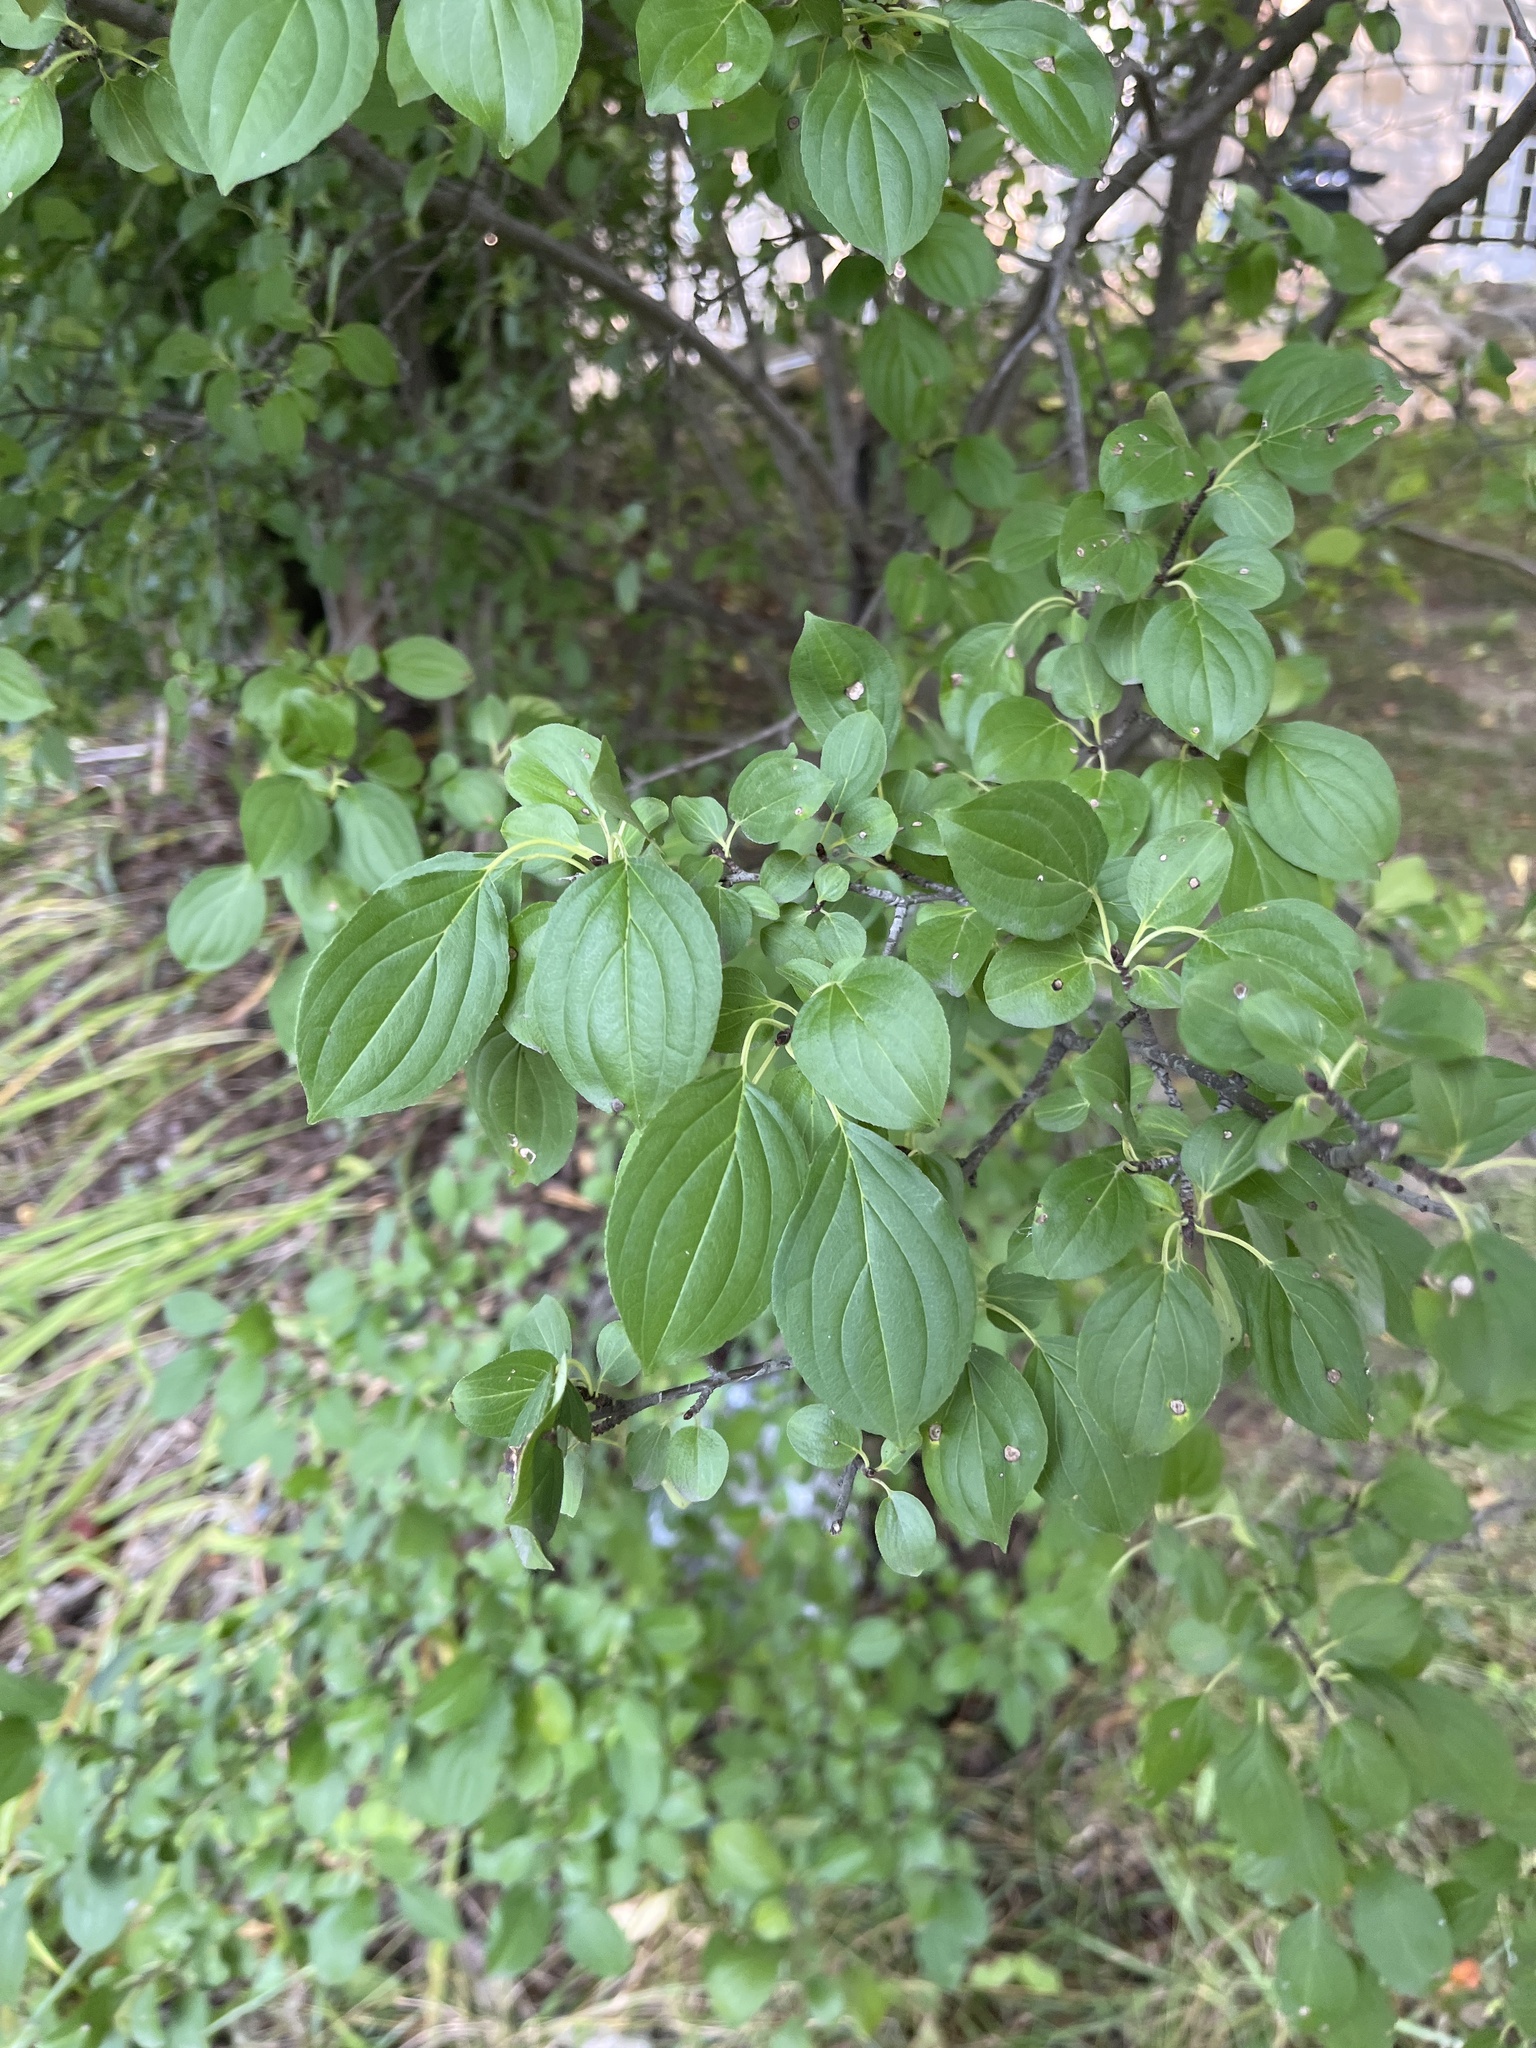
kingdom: Plantae
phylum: Tracheophyta
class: Magnoliopsida
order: Rosales
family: Rhamnaceae
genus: Rhamnus
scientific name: Rhamnus cathartica
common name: Common buckthorn
